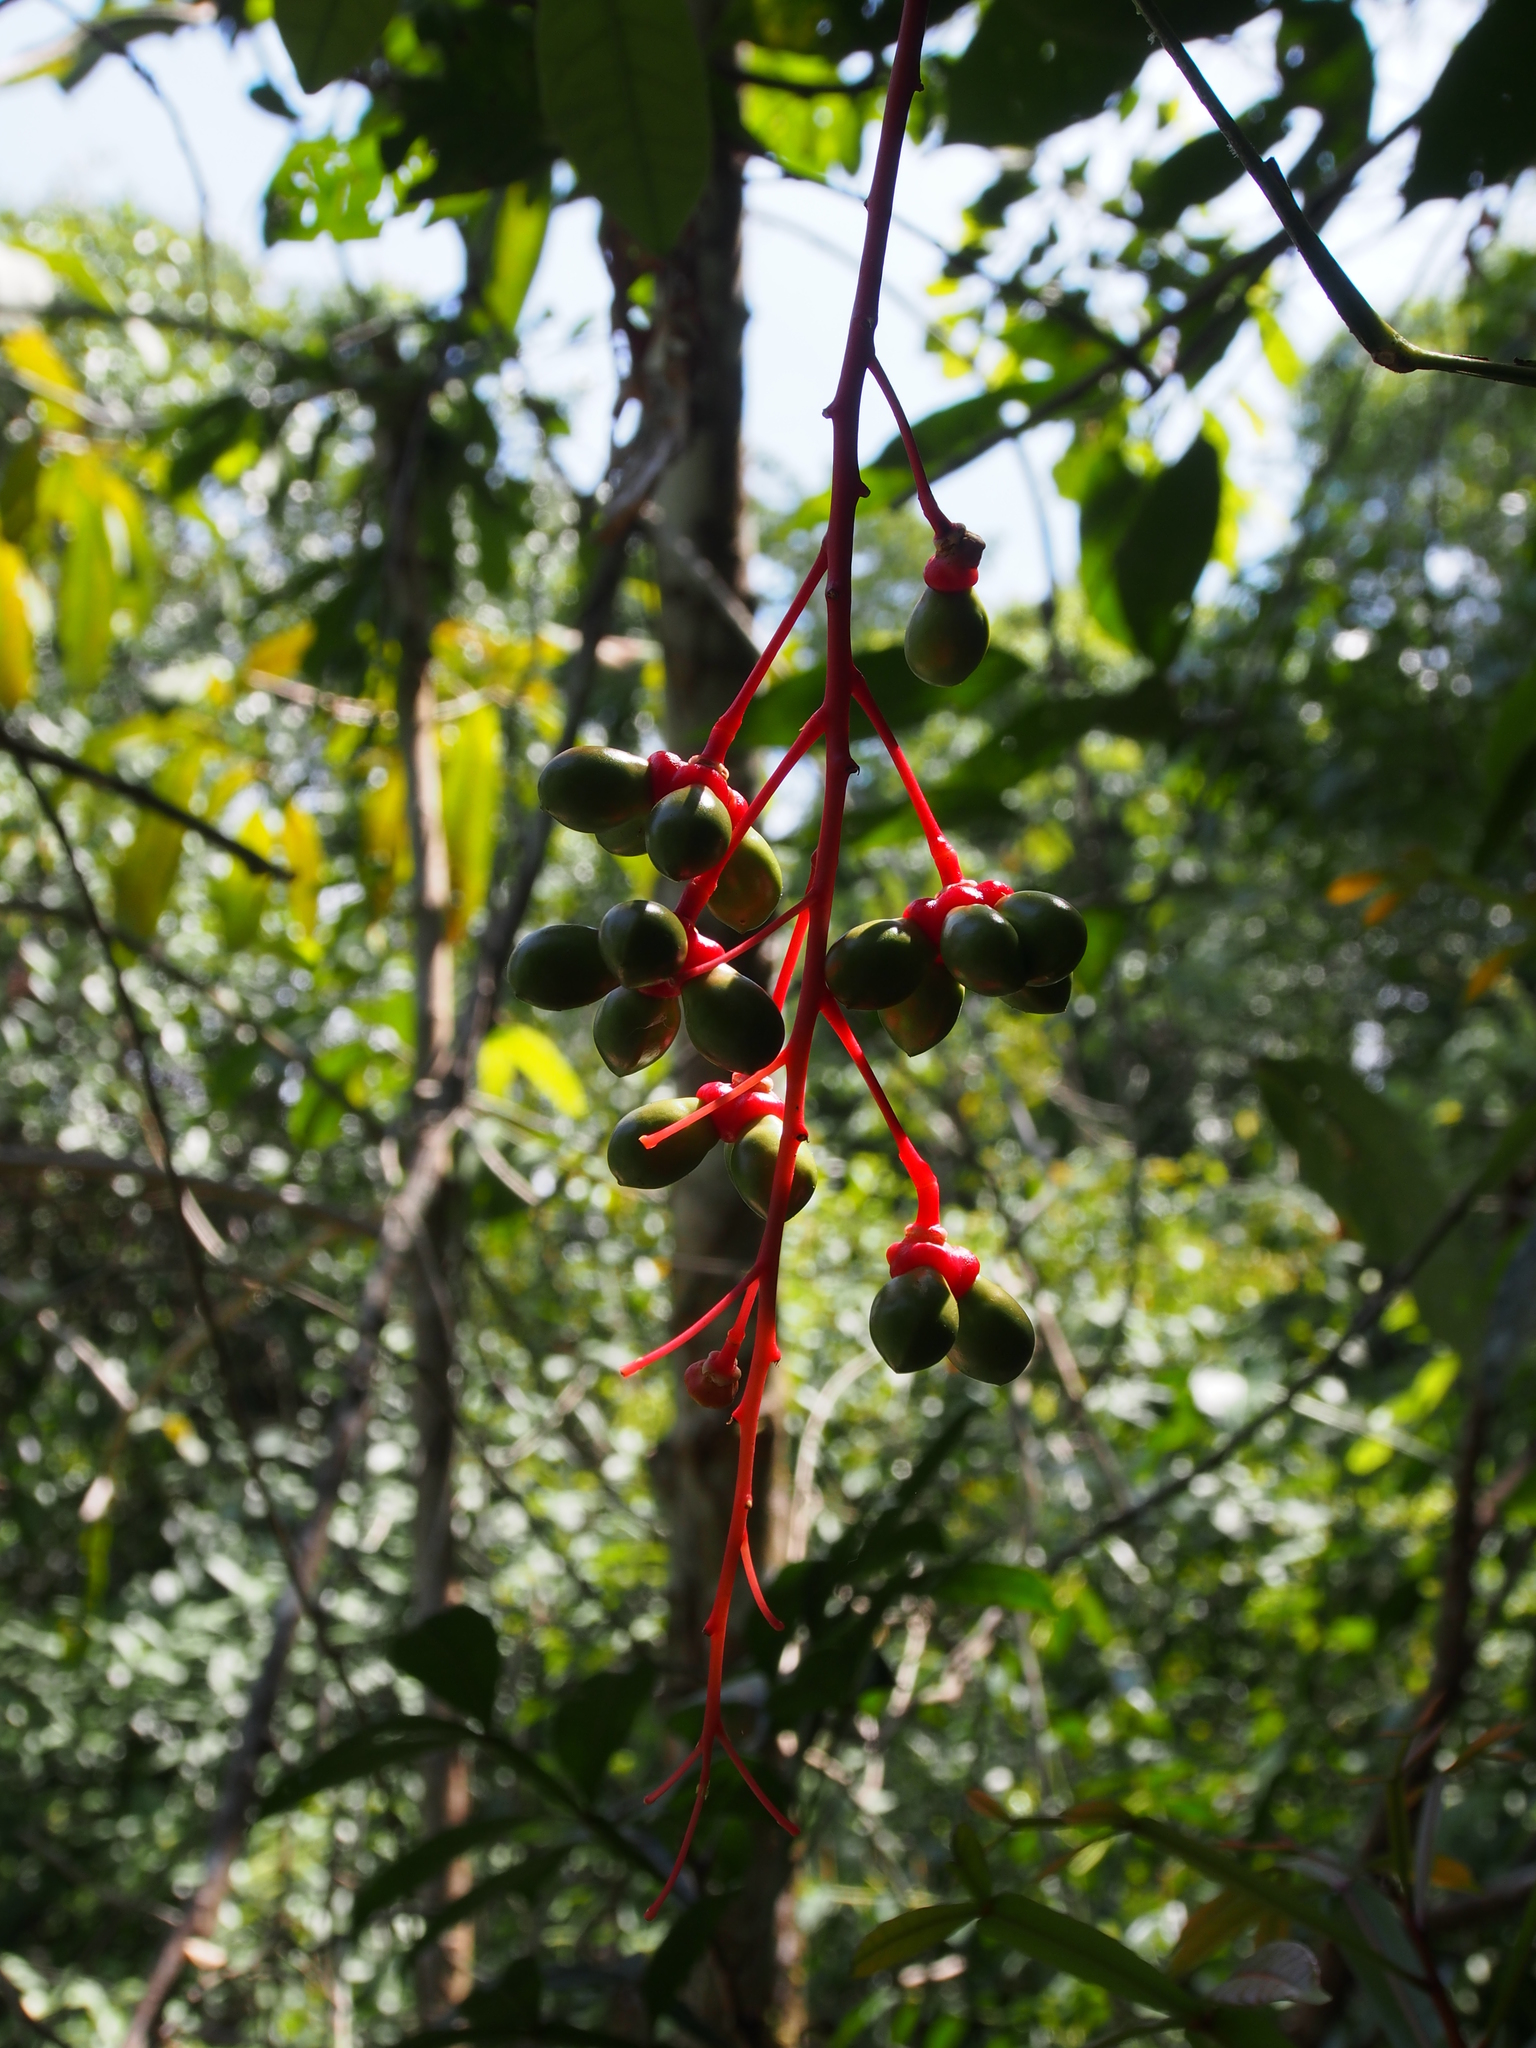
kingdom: Plantae
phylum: Tracheophyta
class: Magnoliopsida
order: Sapindales
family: Simaroubaceae
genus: Quassia
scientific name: Quassia amara
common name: Quassia
